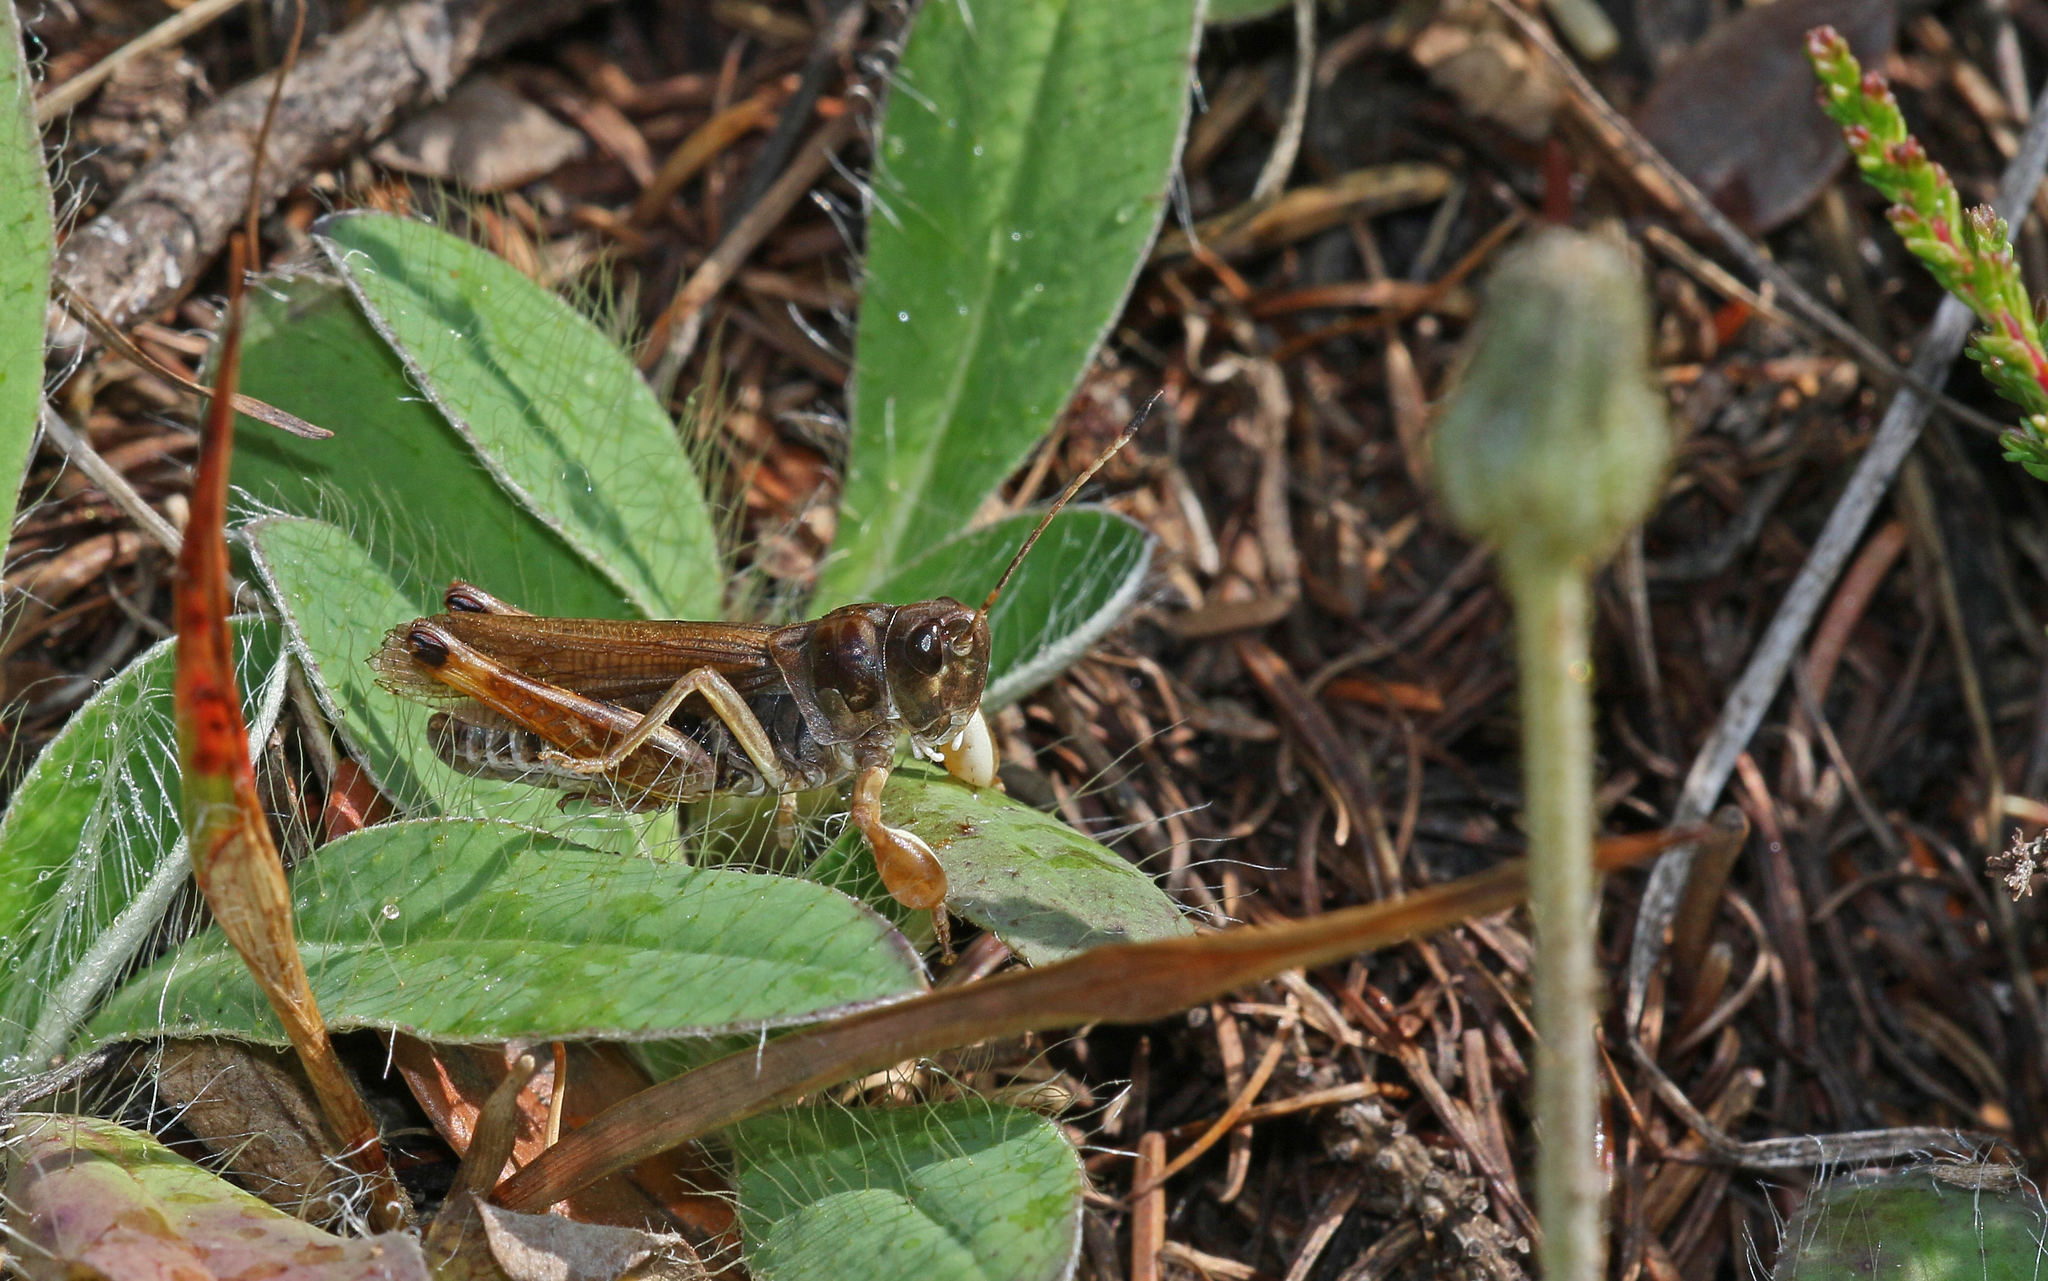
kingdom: Animalia
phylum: Arthropoda
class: Insecta
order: Orthoptera
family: Acrididae
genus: Gomphocerus
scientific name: Gomphocerus sibiricus
